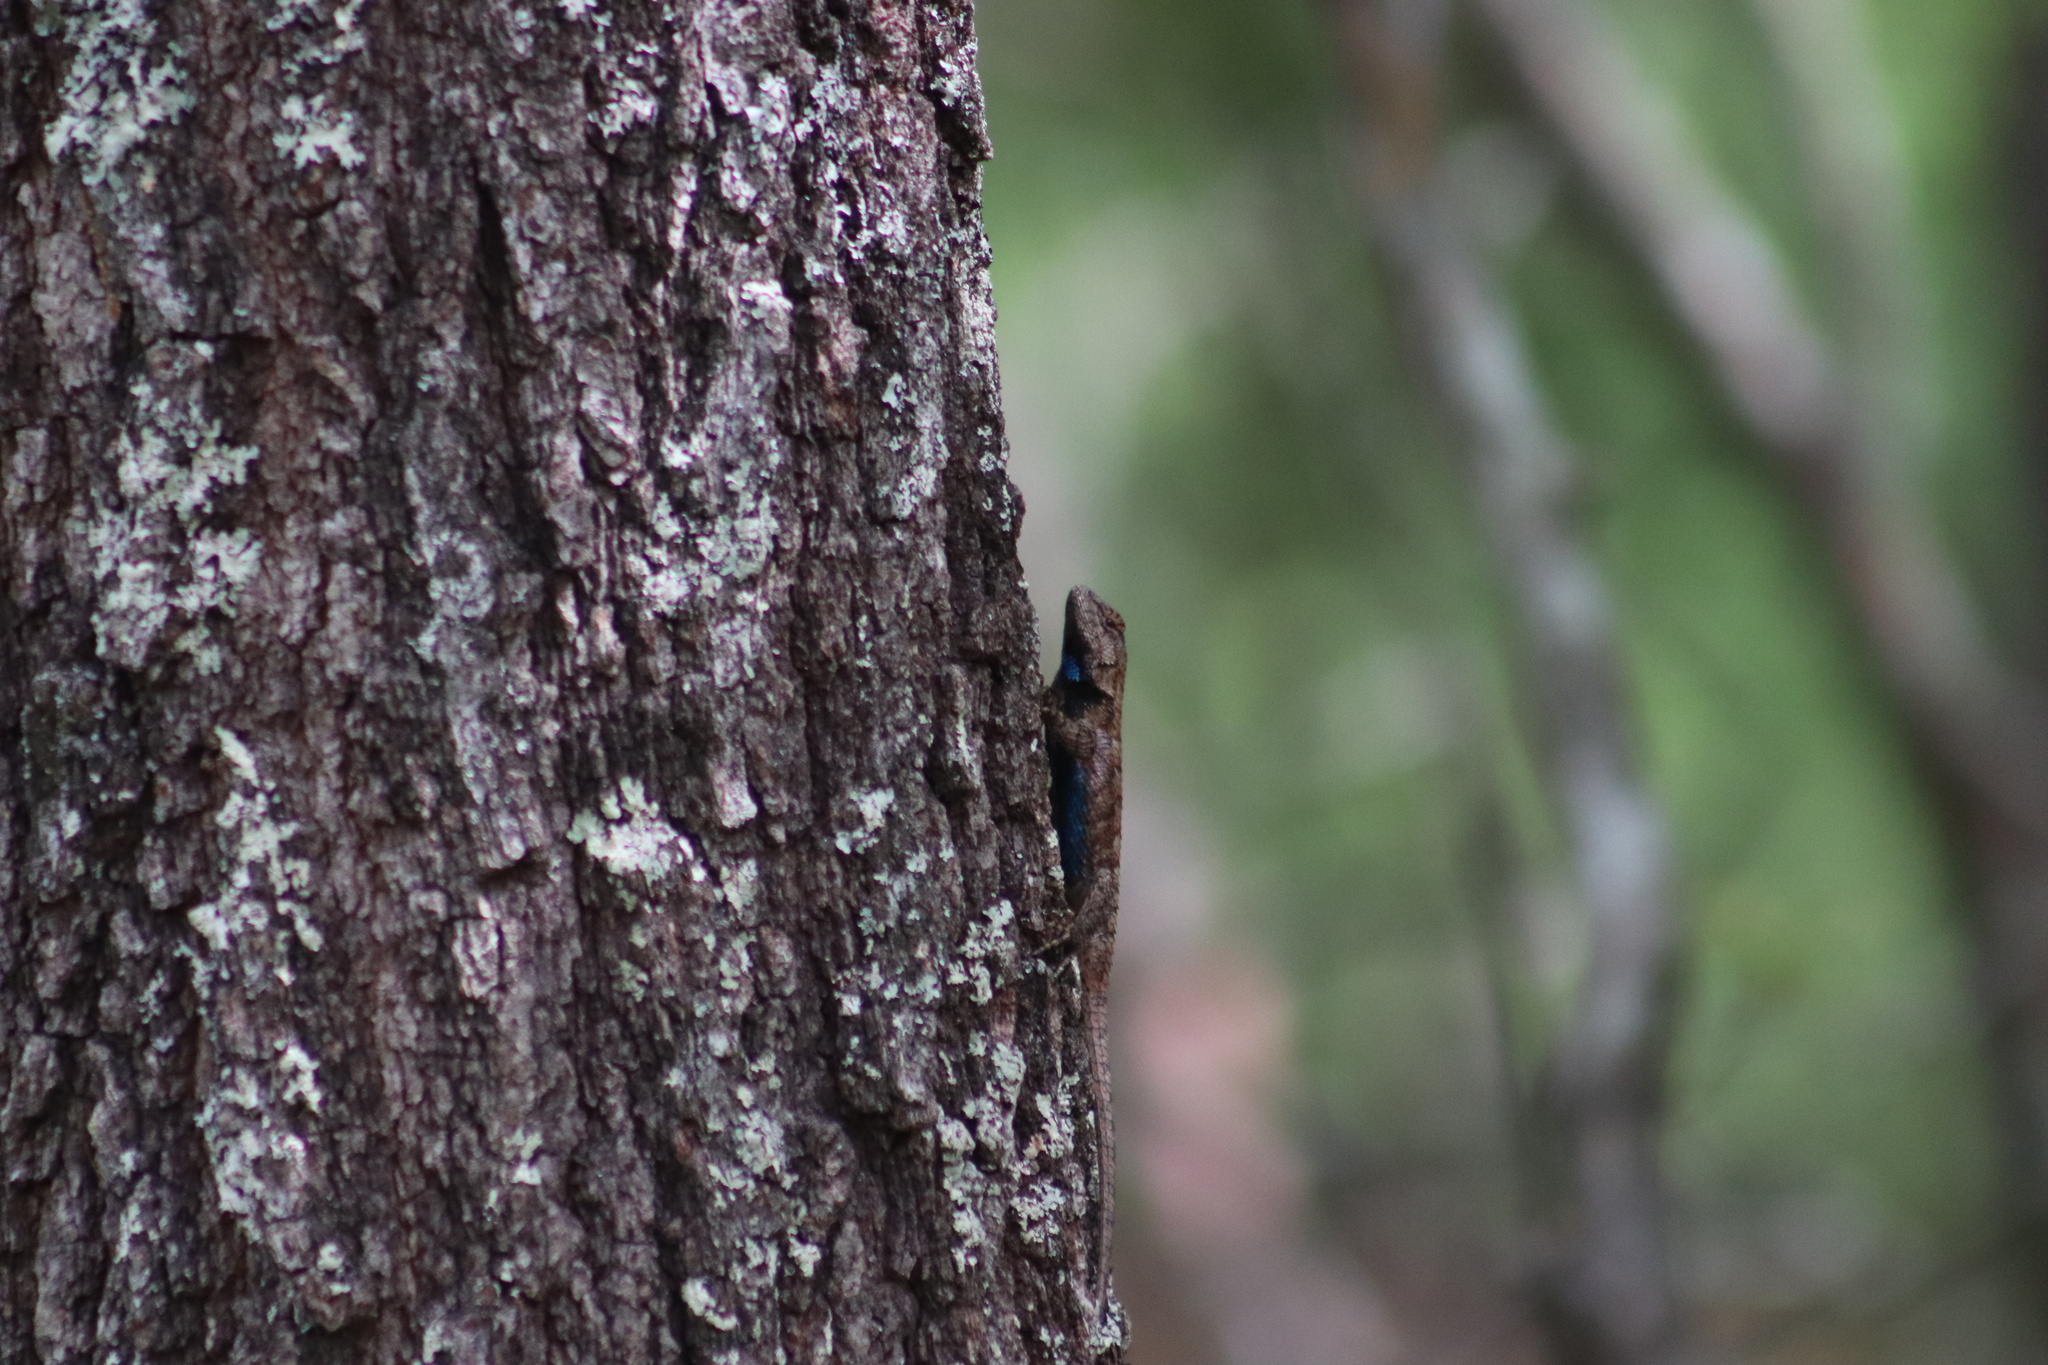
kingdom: Animalia
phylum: Chordata
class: Squamata
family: Phrynosomatidae
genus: Sceloporus
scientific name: Sceloporus undulatus
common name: Eastern fence lizard
